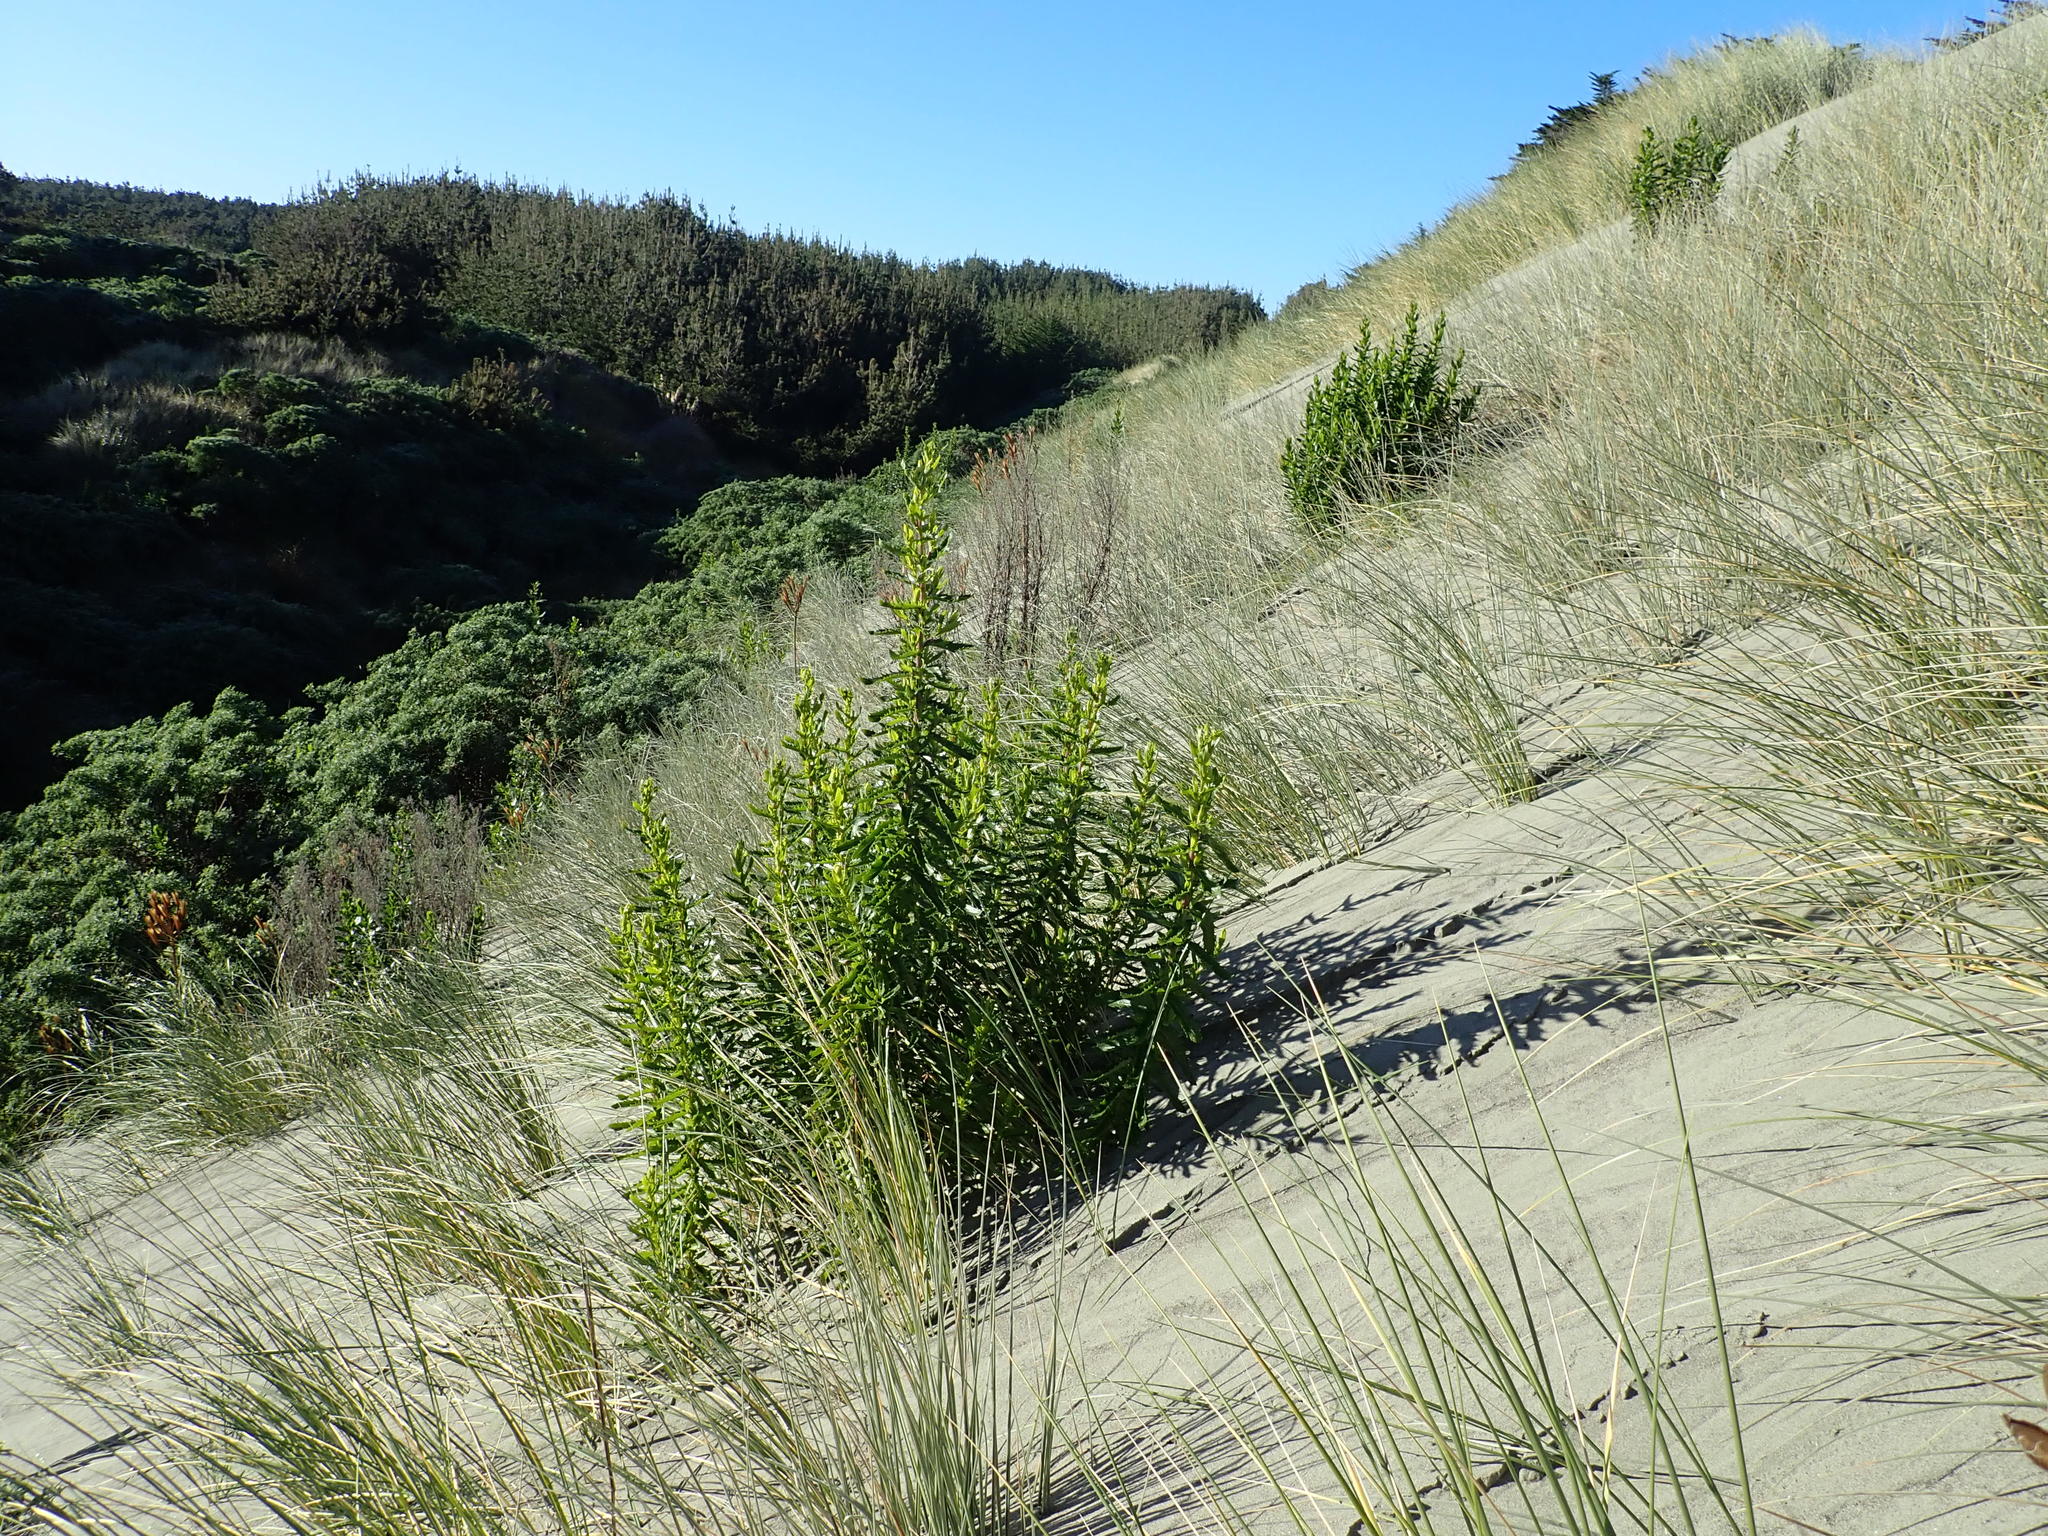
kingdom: Plantae
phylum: Tracheophyta
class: Magnoliopsida
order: Asterales
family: Asteraceae
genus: Senecio
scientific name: Senecio glastifolius
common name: Woad-leaved ragwort
